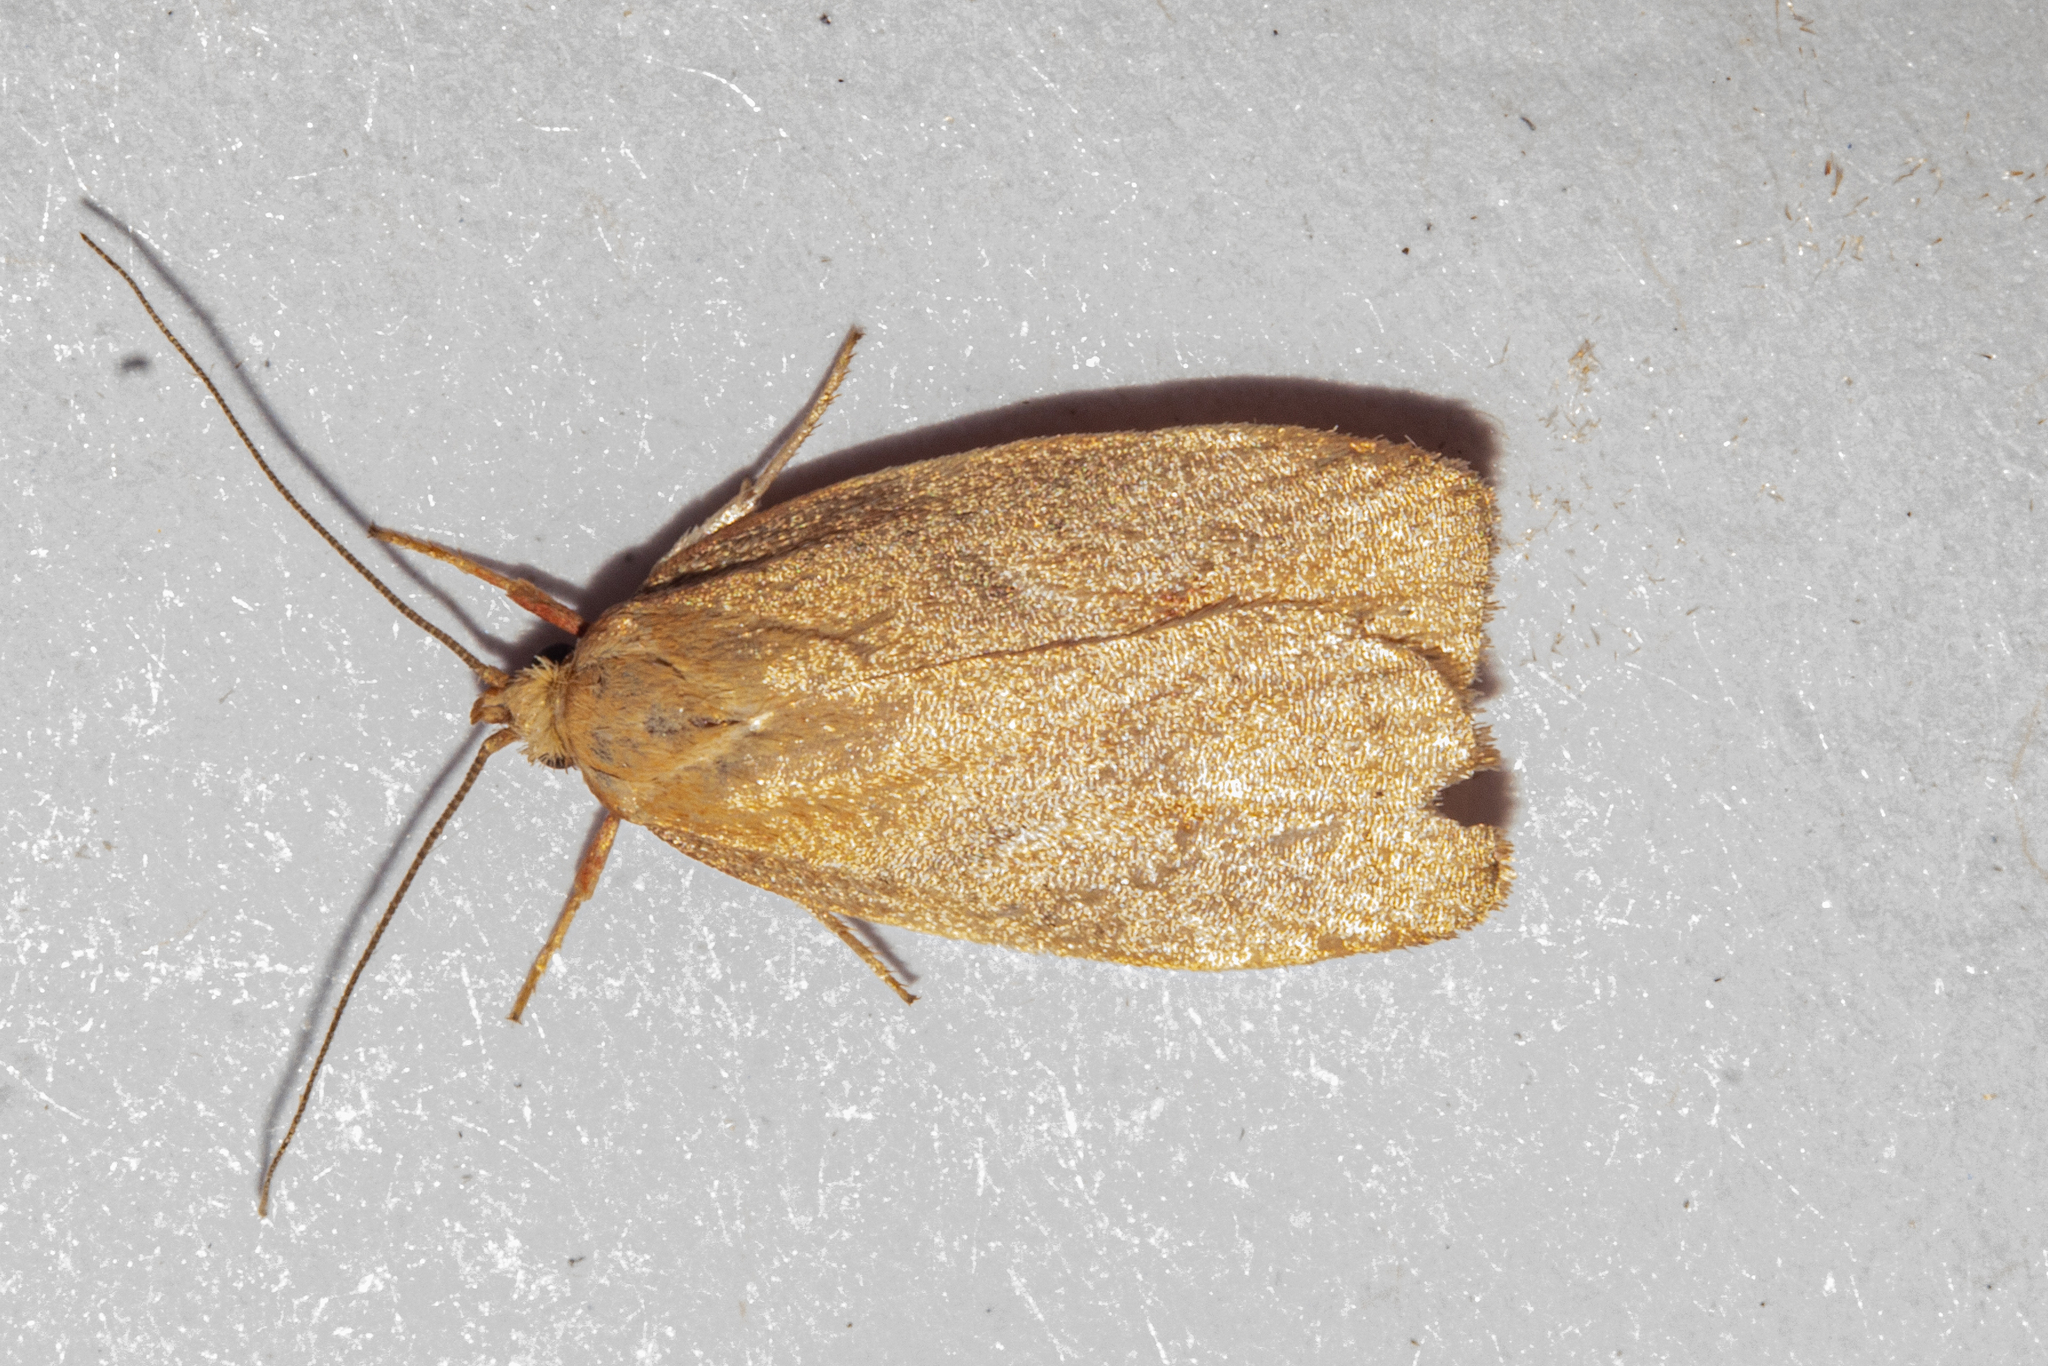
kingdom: Animalia
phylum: Arthropoda
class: Insecta
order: Lepidoptera
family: Oecophoridae
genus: Proteodes
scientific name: Proteodes carnifex
